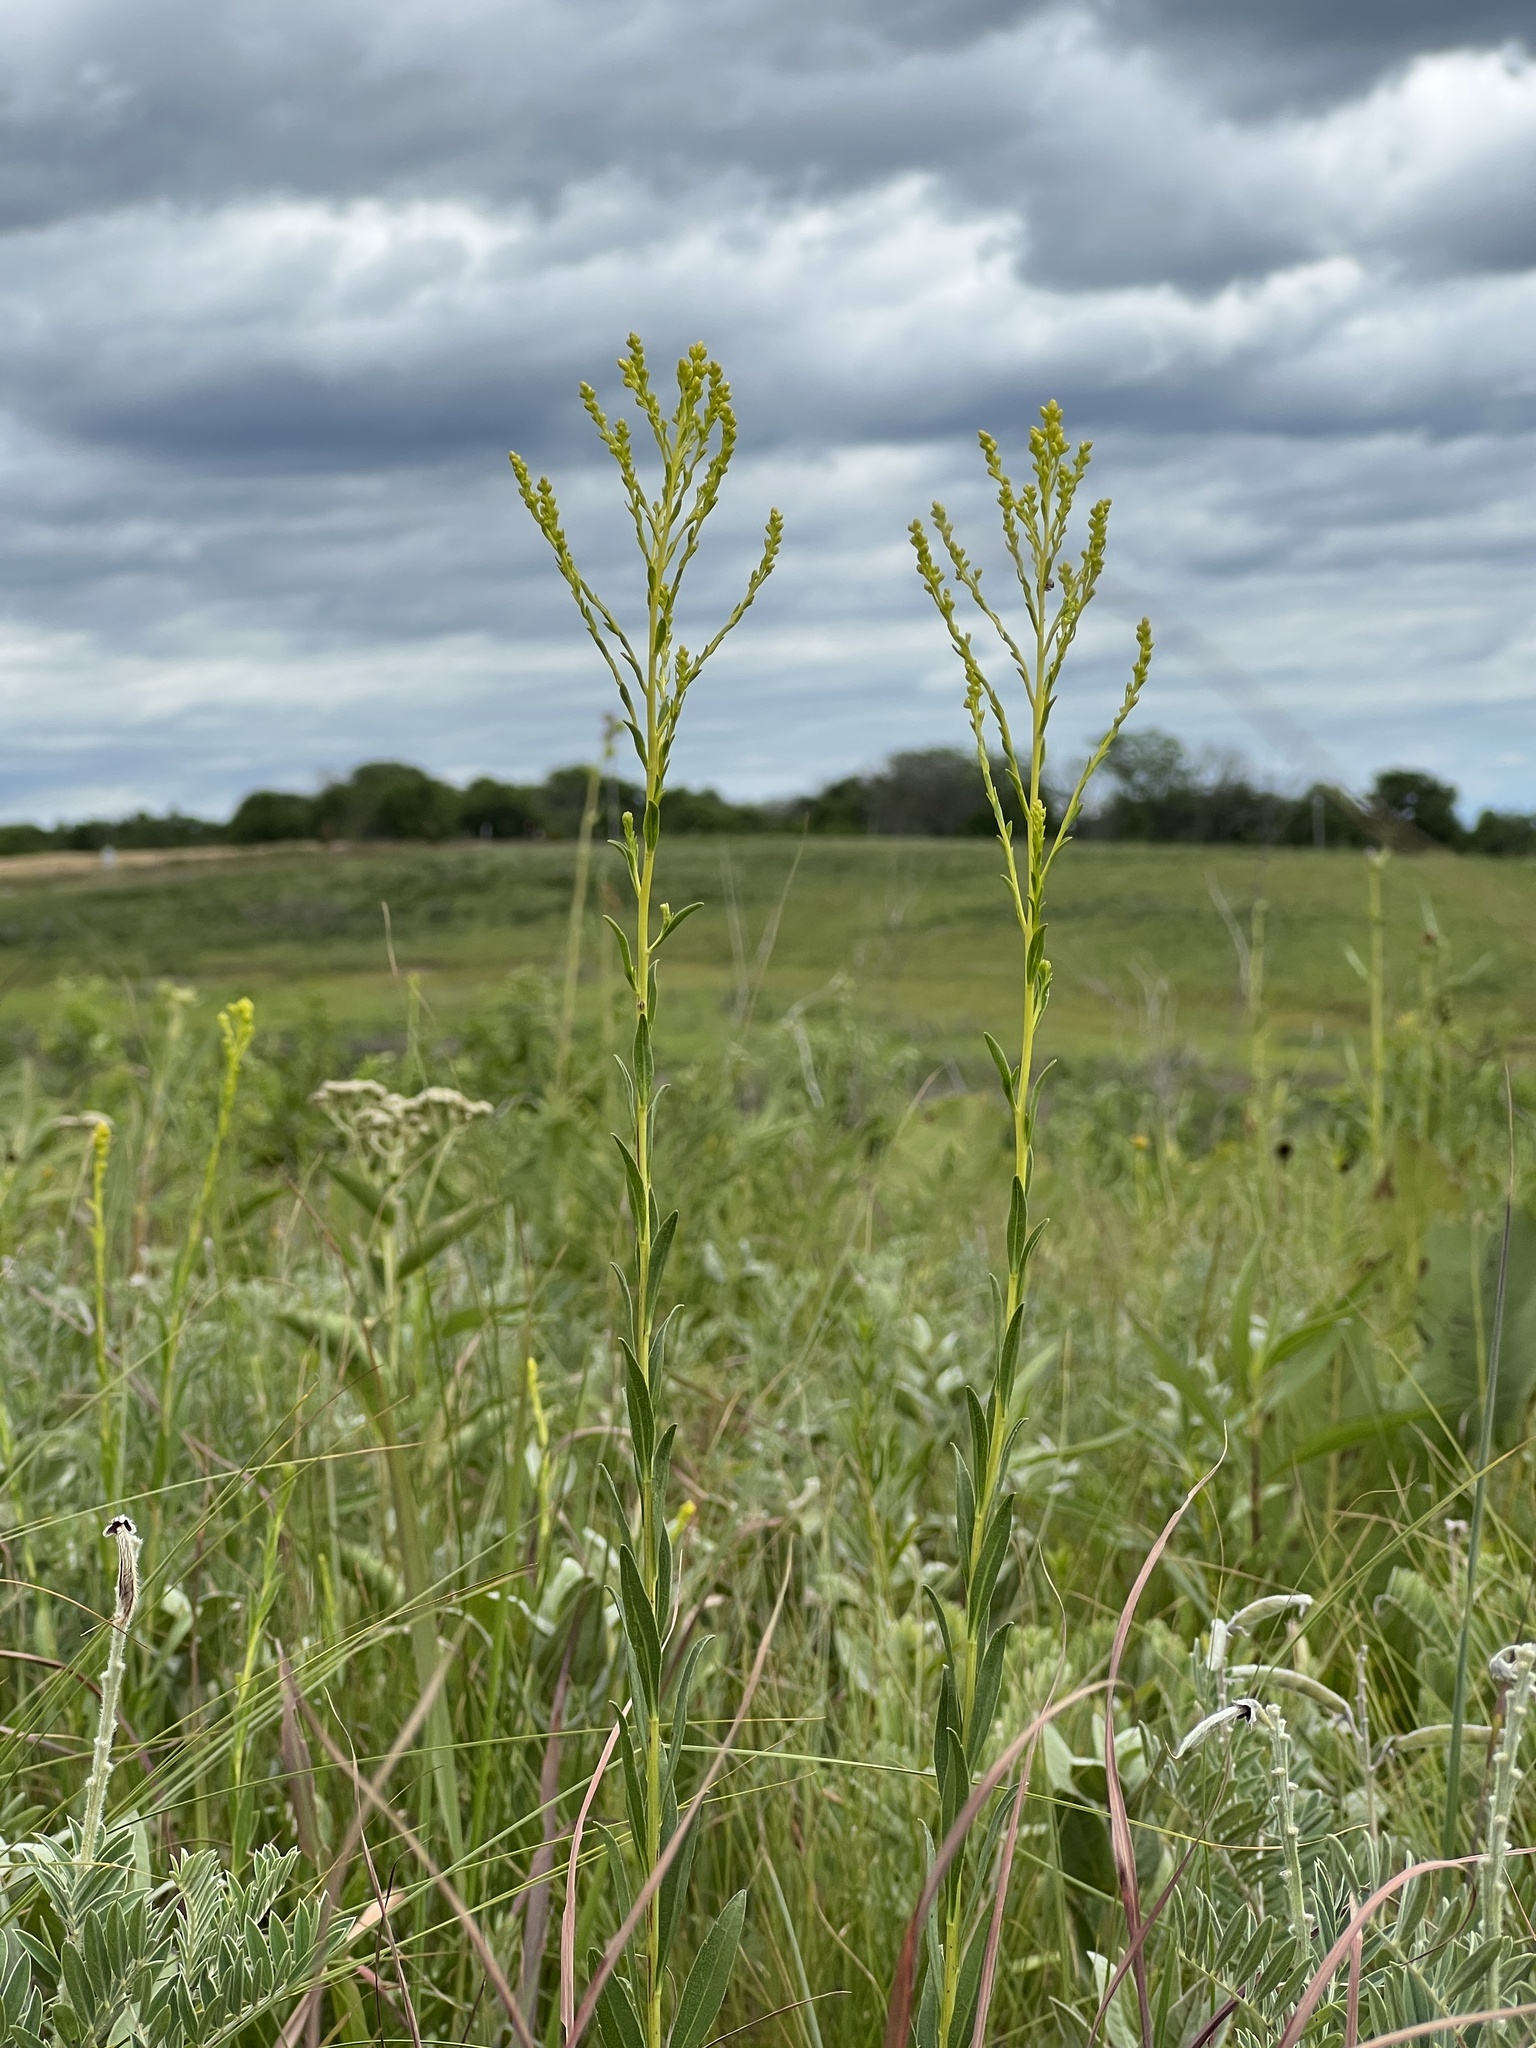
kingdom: Plantae
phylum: Tracheophyta
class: Magnoliopsida
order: Asterales
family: Asteraceae
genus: Solidago
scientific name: Solidago gattingeri
